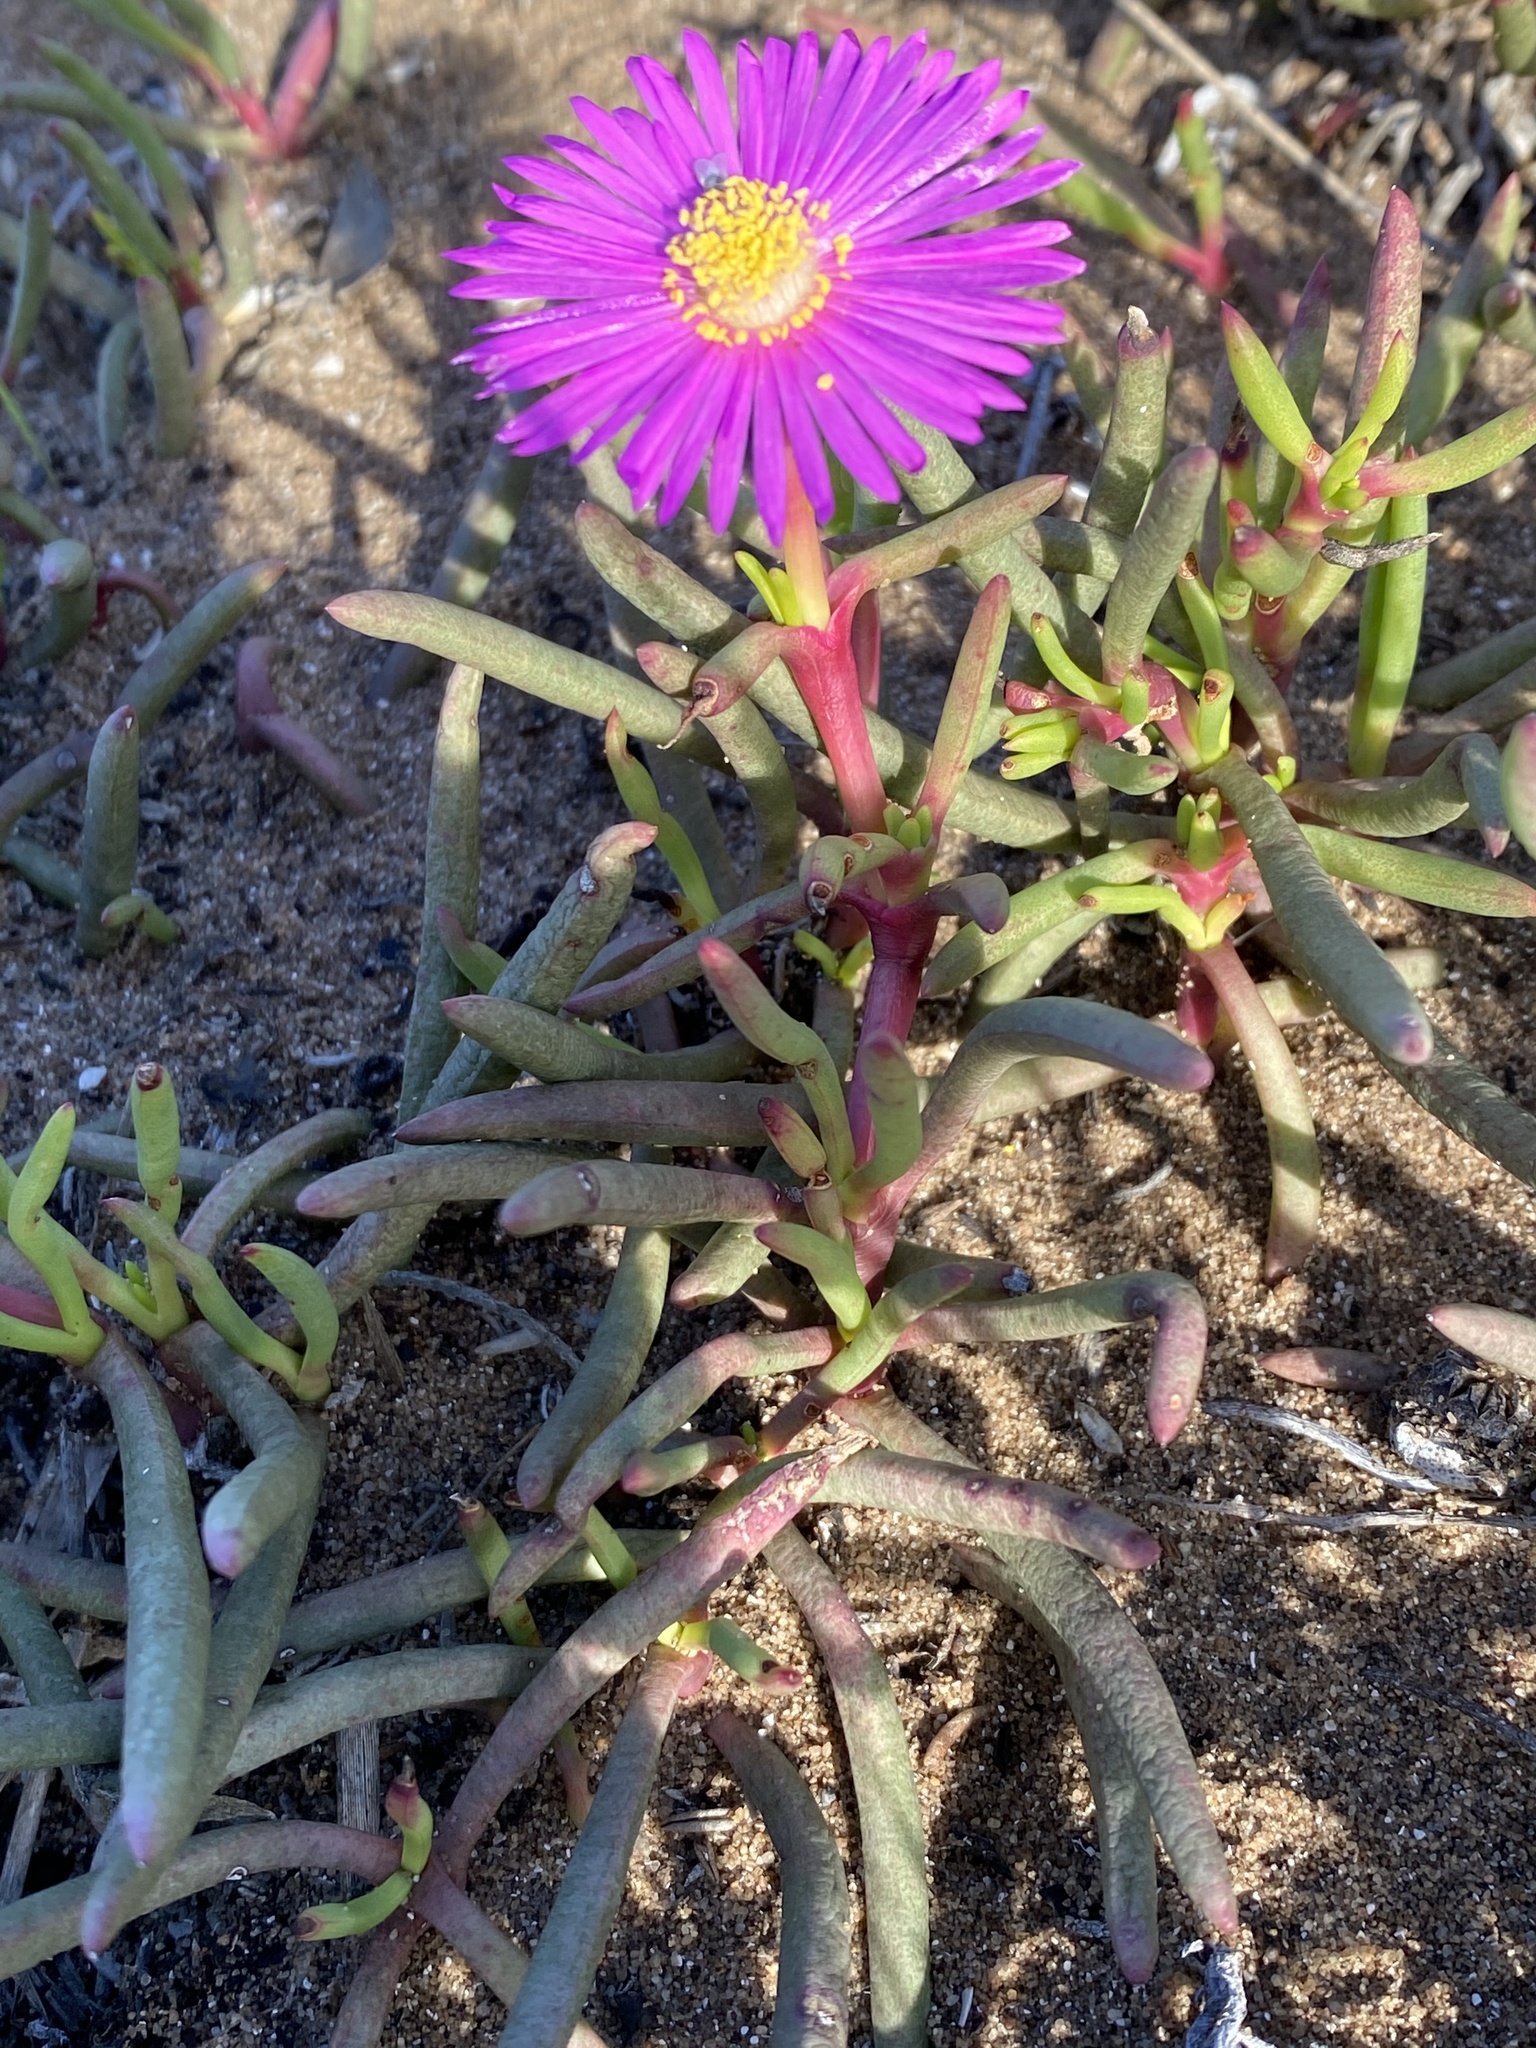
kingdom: Plantae
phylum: Tracheophyta
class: Magnoliopsida
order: Caryophyllales
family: Aizoaceae
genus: Jordaaniella
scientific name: Jordaaniella dubia
